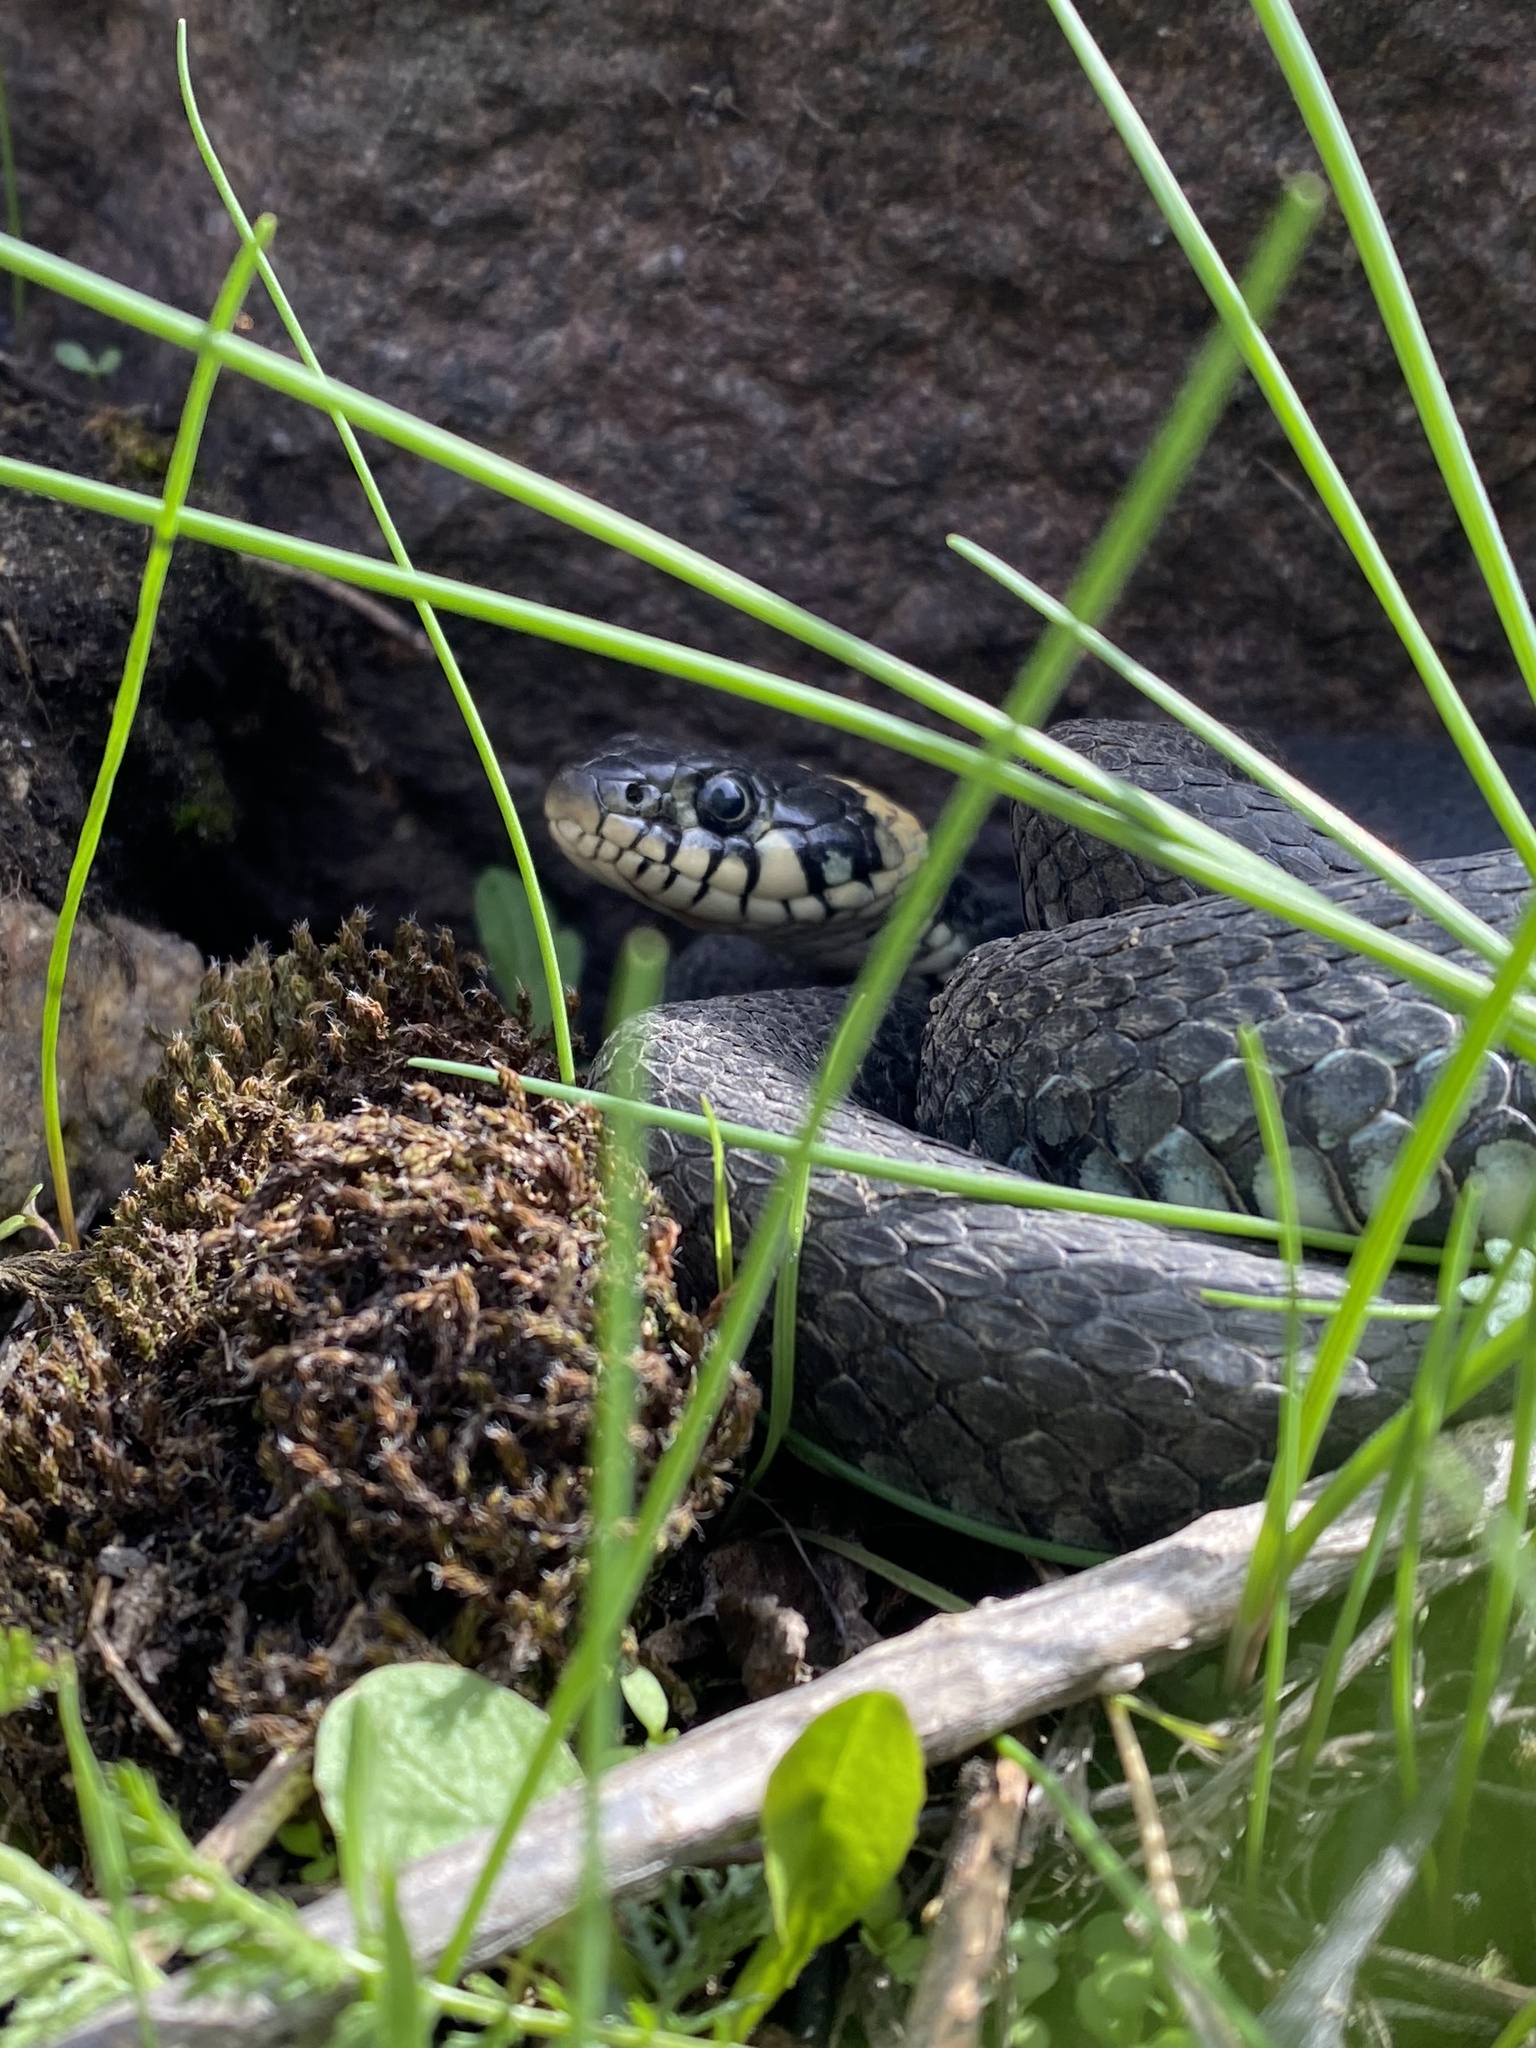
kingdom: Animalia
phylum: Chordata
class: Squamata
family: Colubridae
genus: Natrix
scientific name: Natrix natrix
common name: Grass snake
